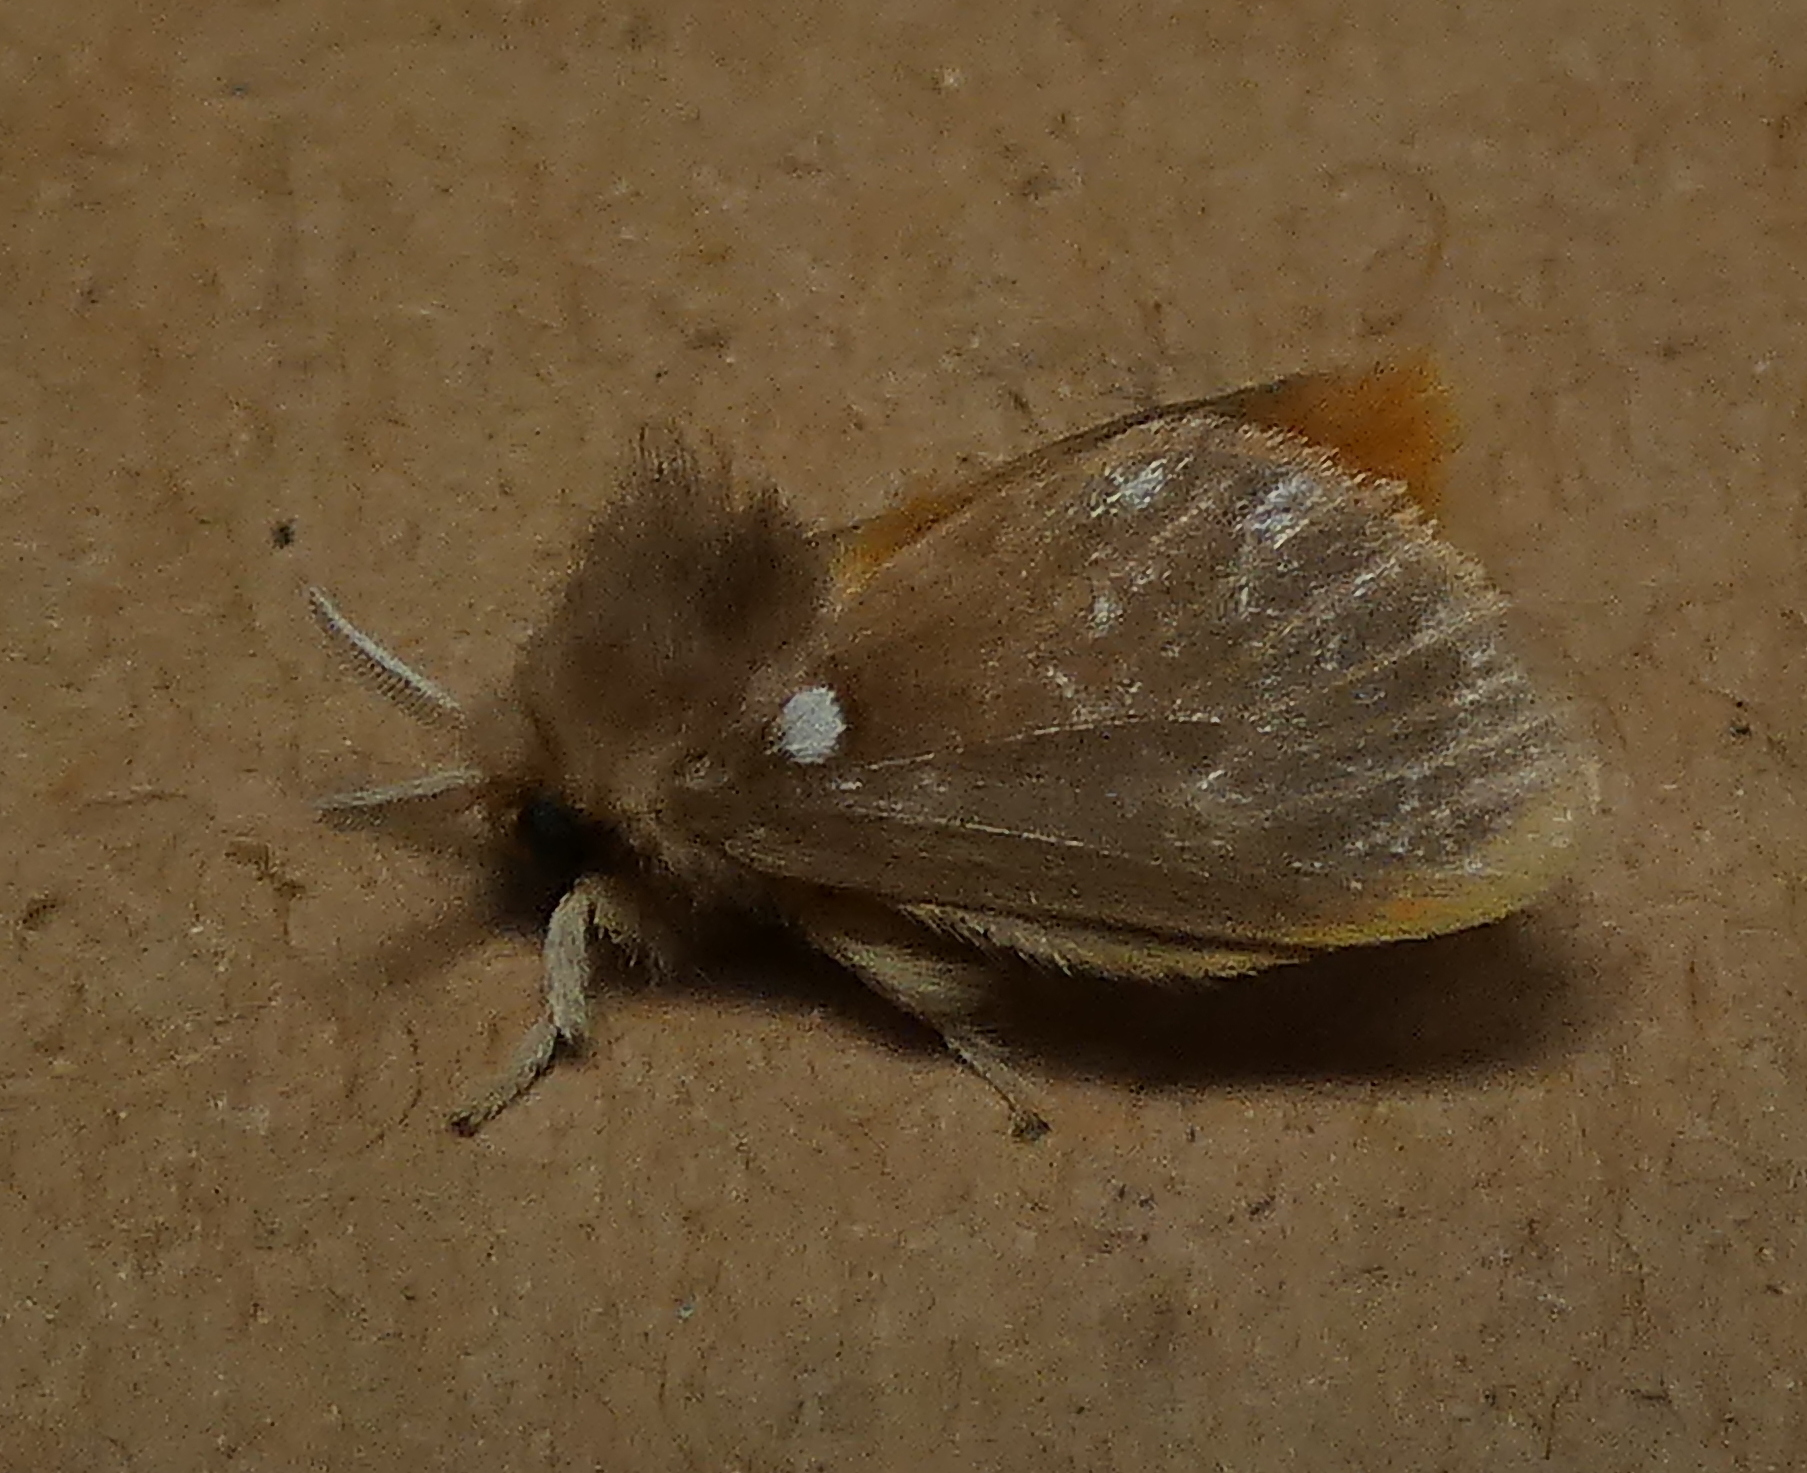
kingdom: Animalia
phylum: Arthropoda
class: Insecta
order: Lepidoptera
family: Megalopygidae
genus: Megalopyge
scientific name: Megalopyge basalis
